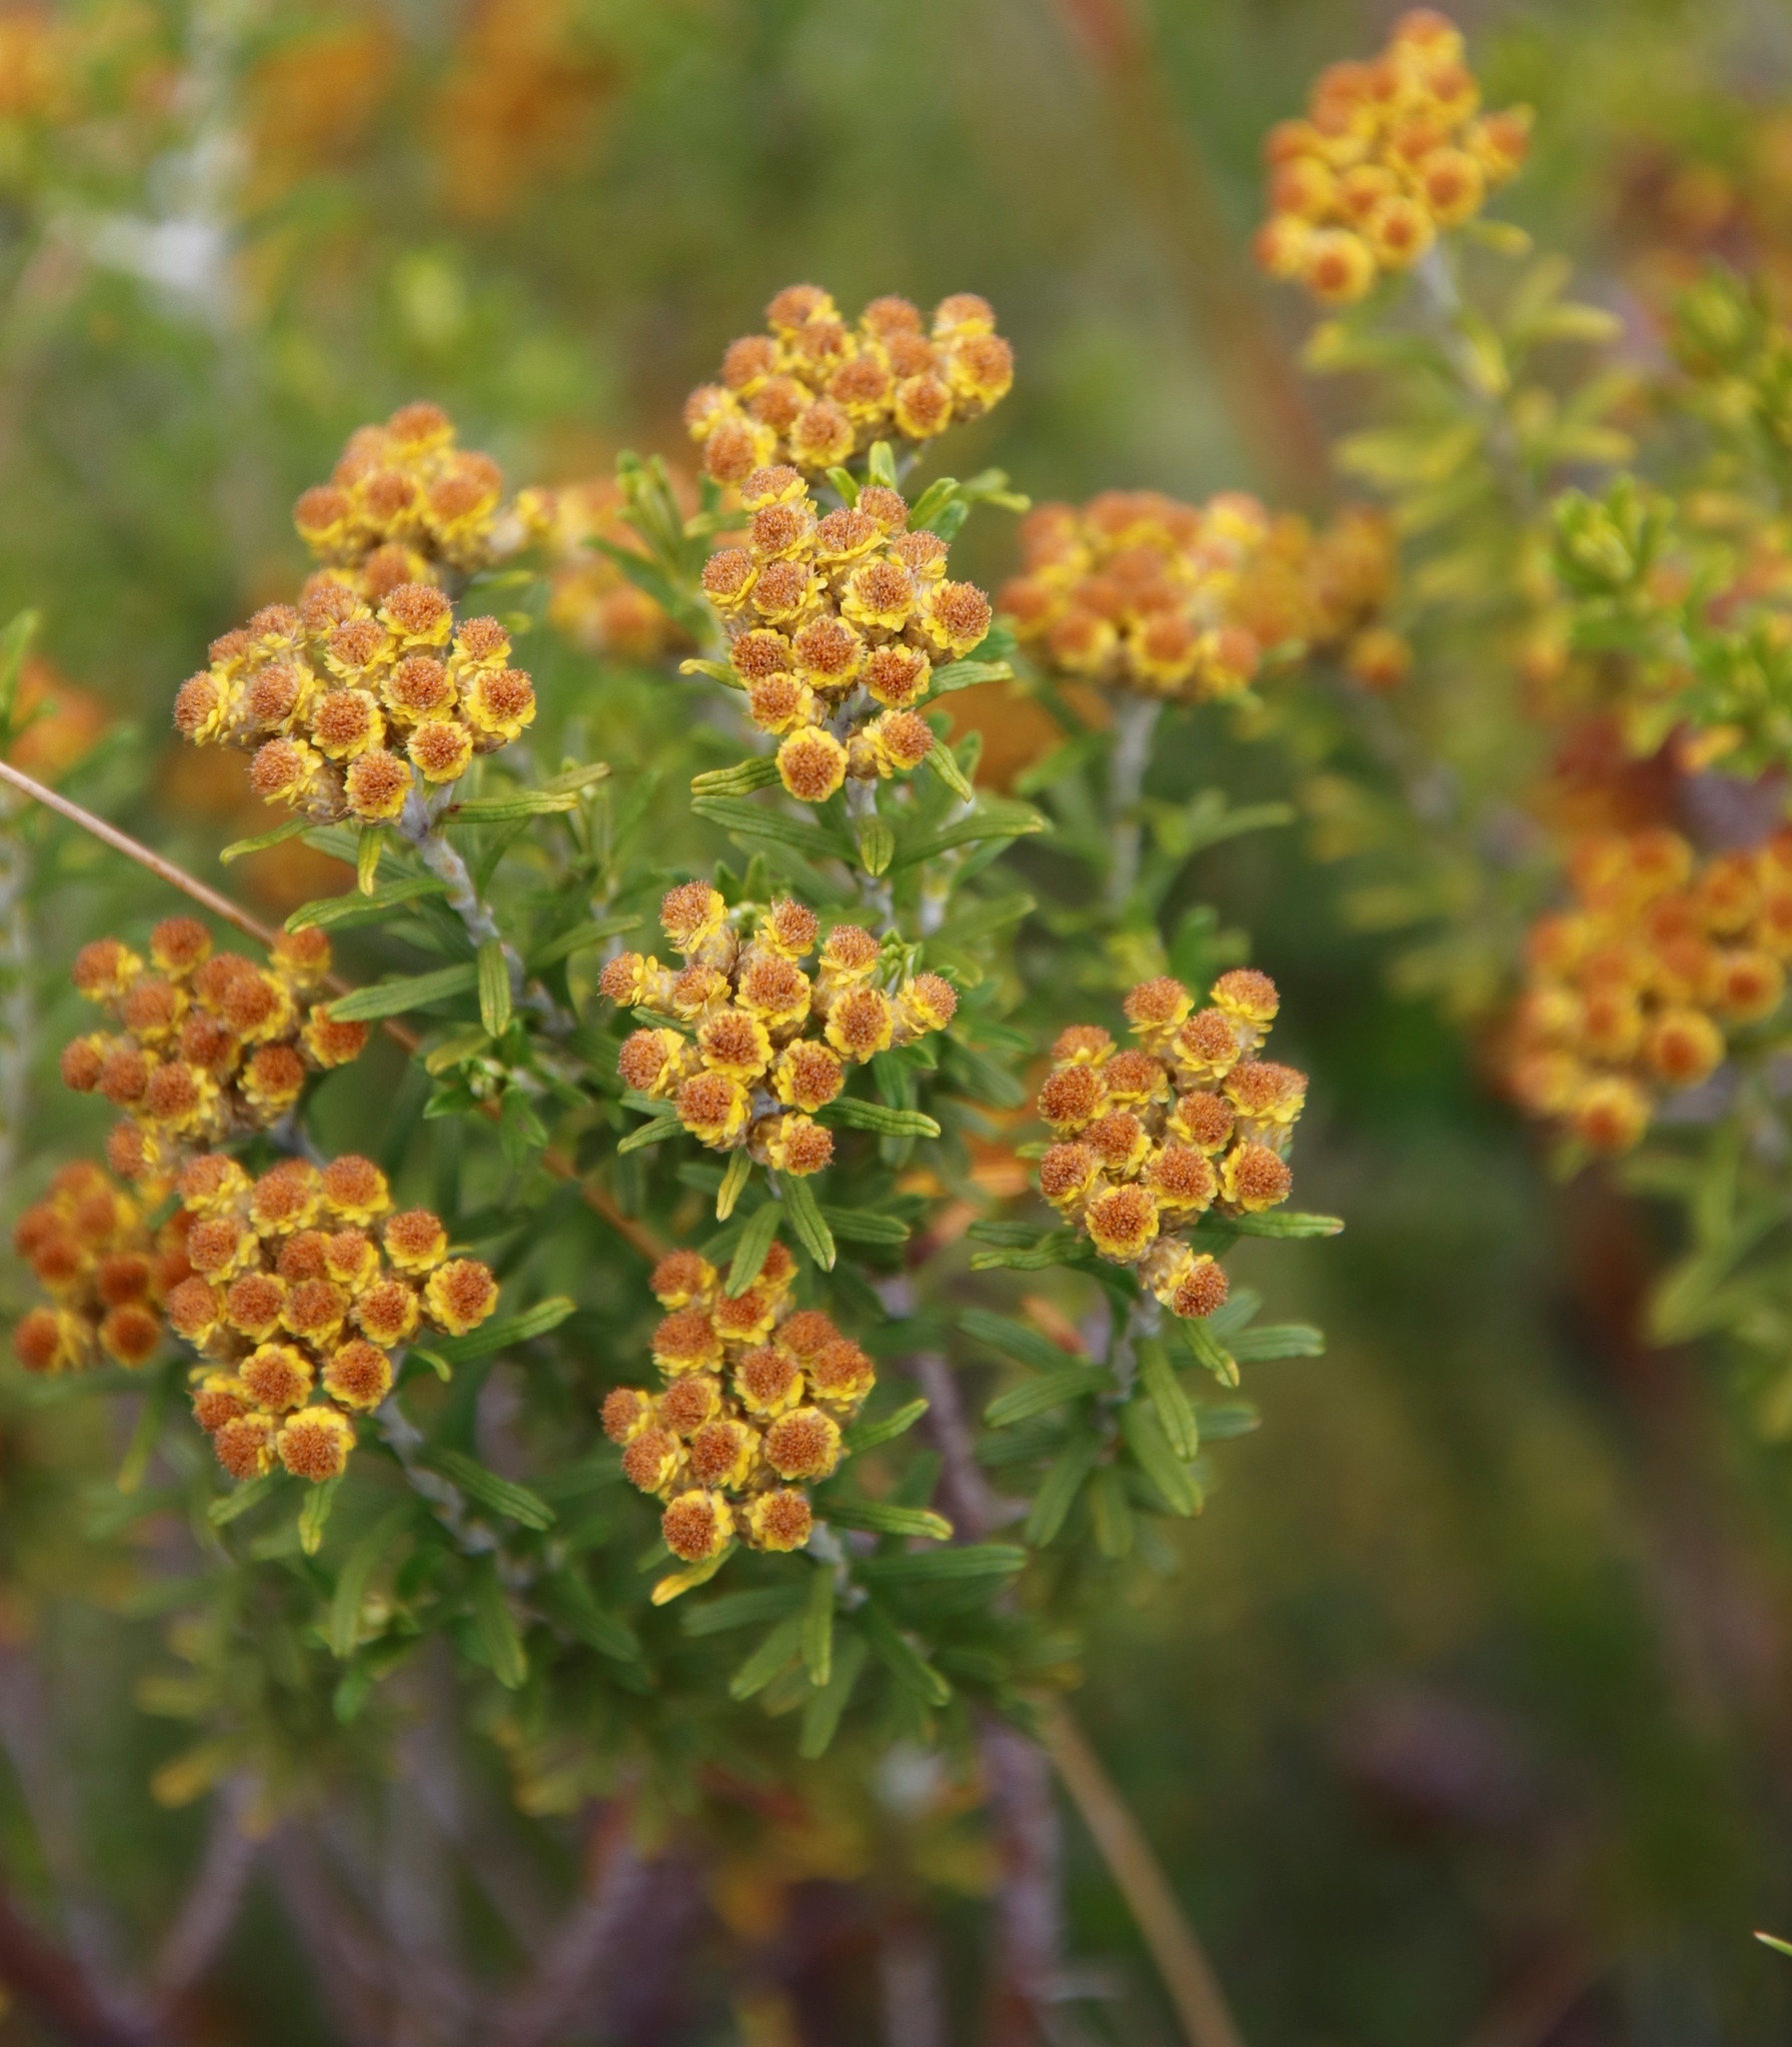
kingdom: Plantae
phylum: Tracheophyta
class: Magnoliopsida
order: Asterales
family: Asteraceae
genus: Helichrysum
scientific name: Helichrysum trilineatum
